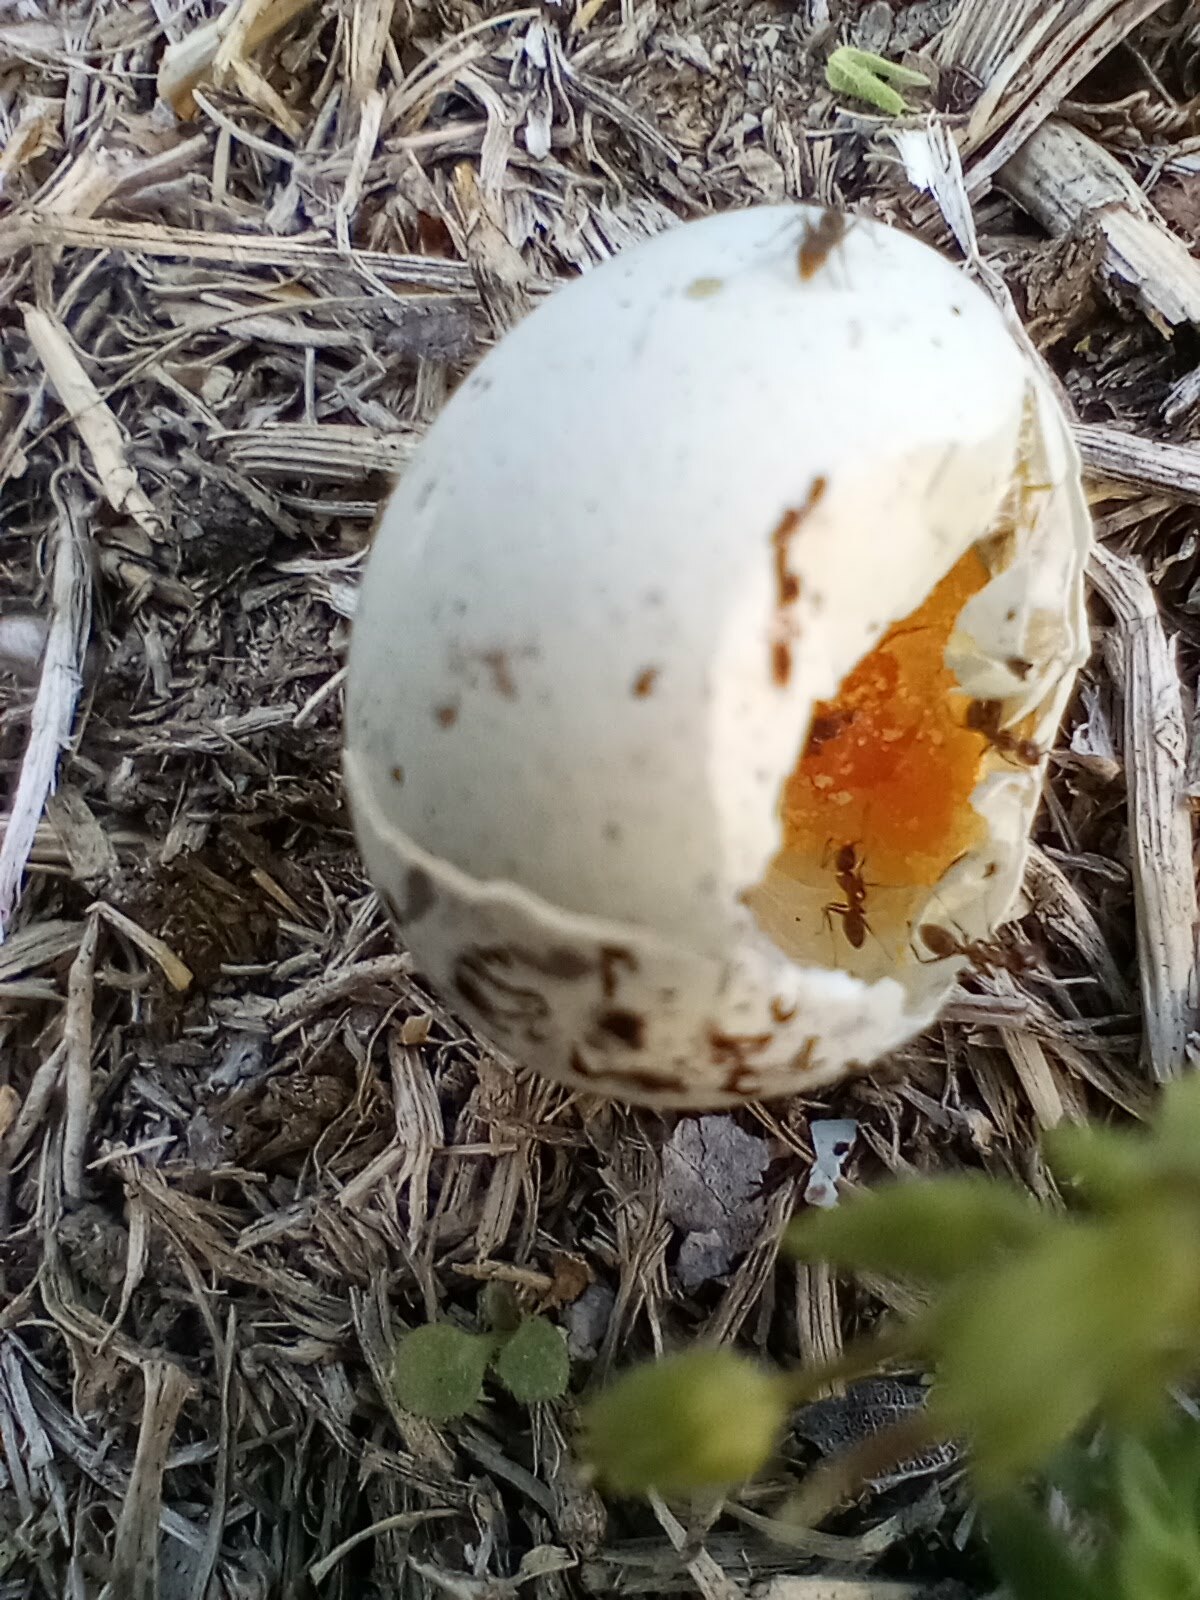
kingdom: Animalia
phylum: Arthropoda
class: Insecta
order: Hymenoptera
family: Formicidae
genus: Linepithema
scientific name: Linepithema humile
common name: Argentine ant
